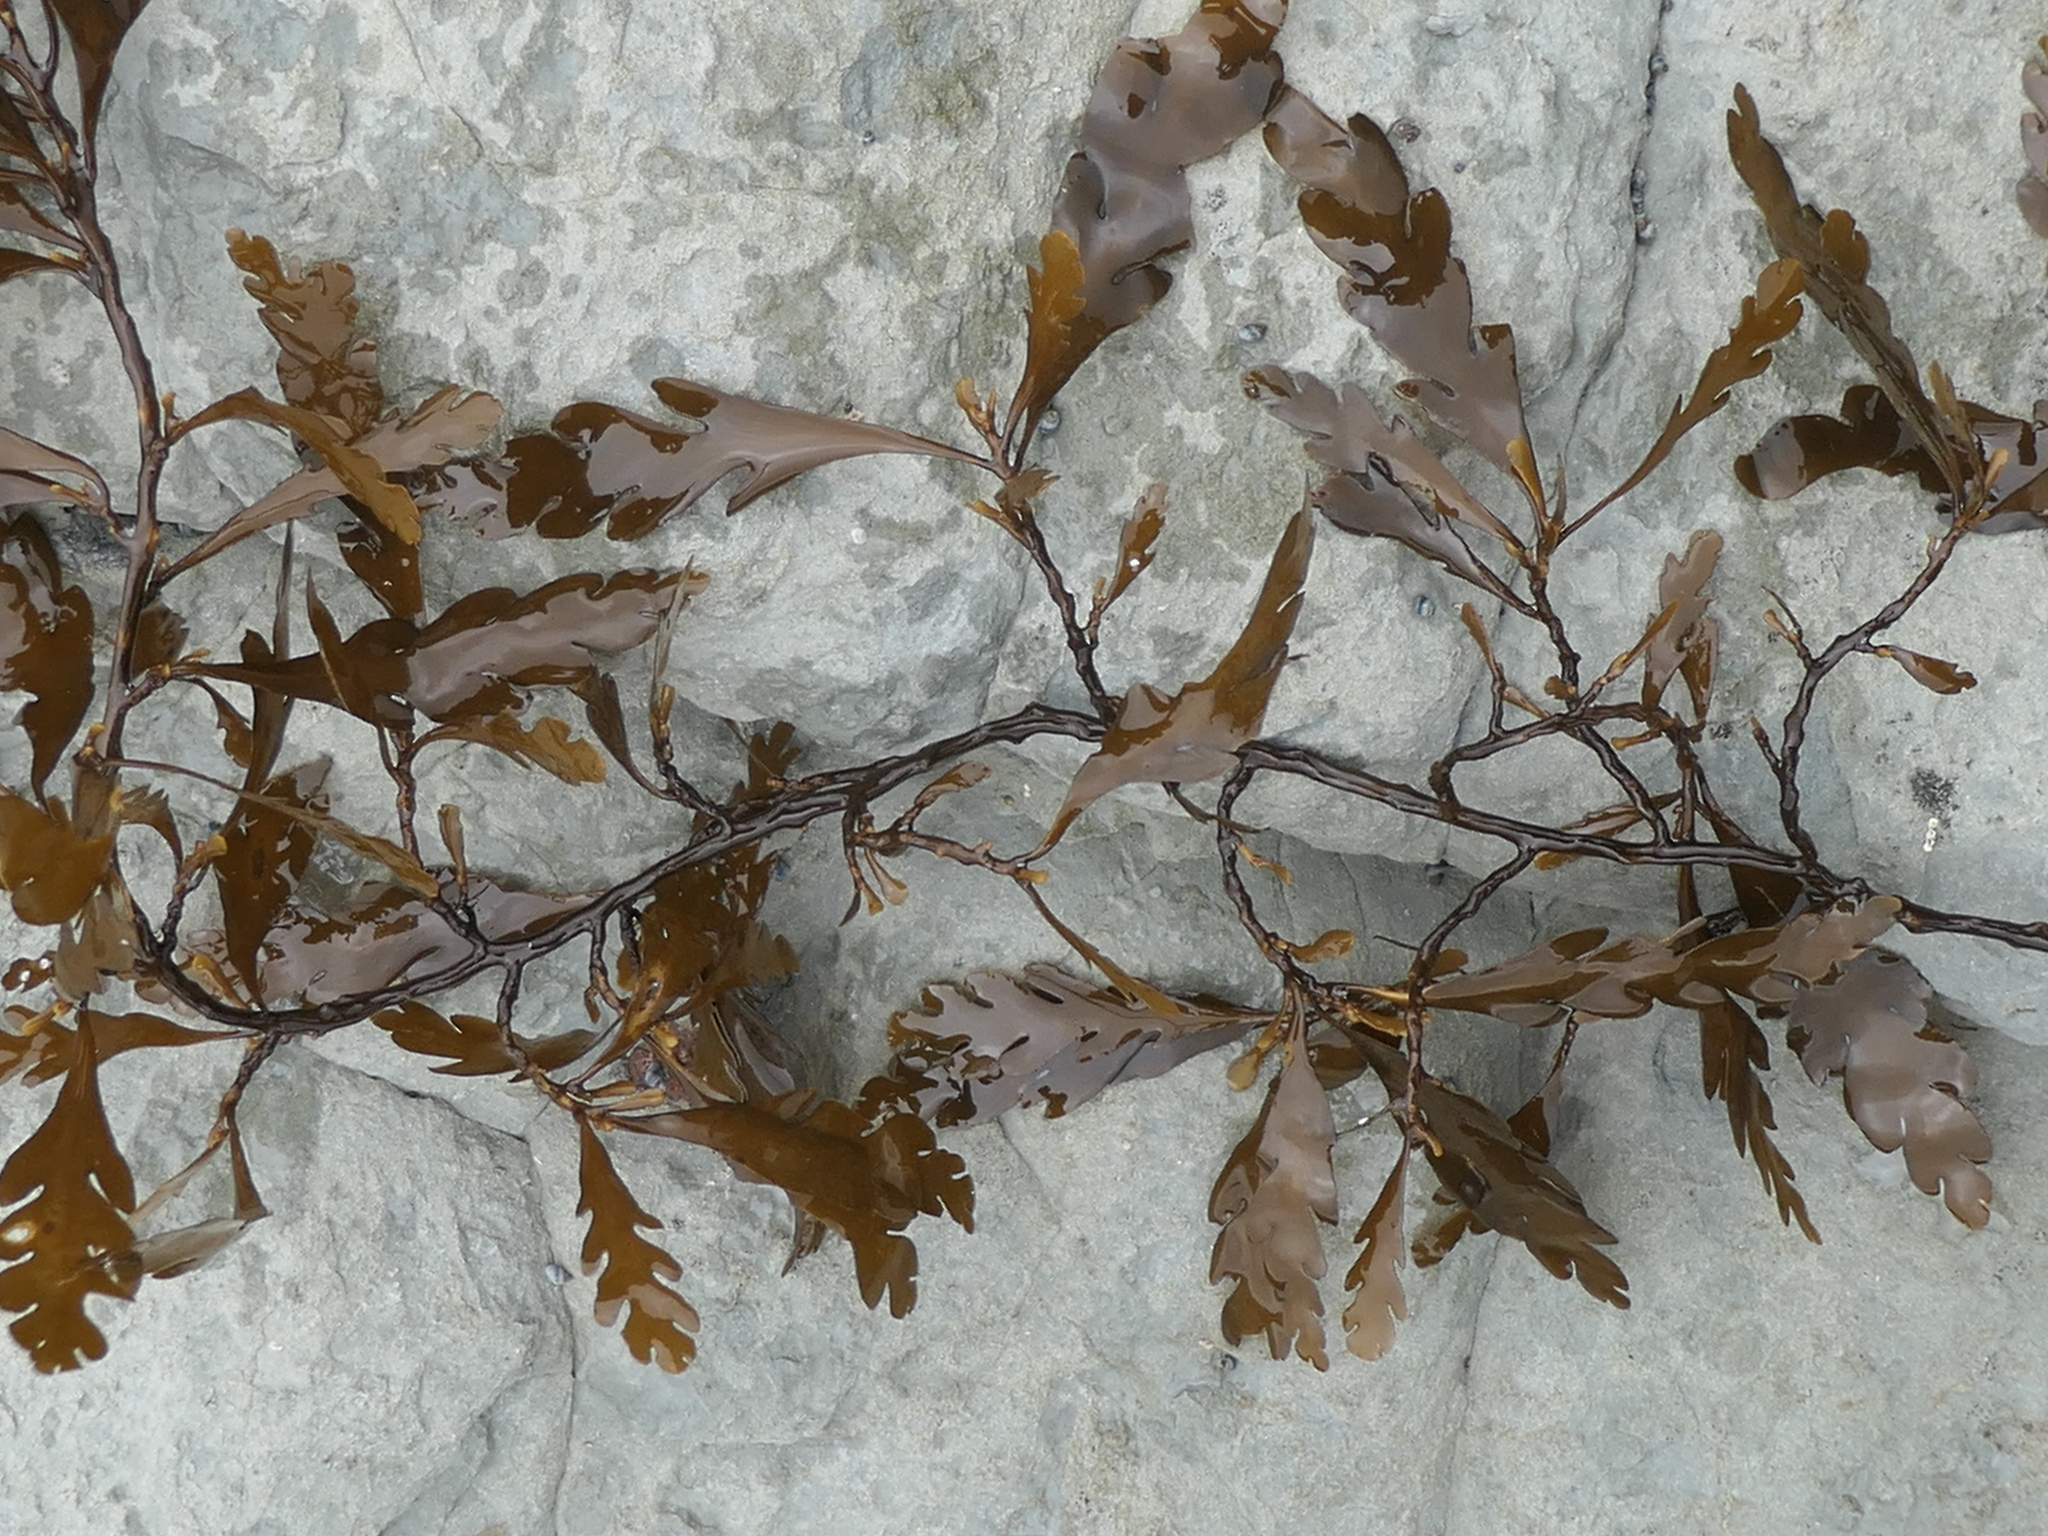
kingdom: Chromista
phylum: Ochrophyta
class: Phaeophyceae
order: Fucales
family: Sargassaceae
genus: Landsburgia
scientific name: Landsburgia quercifolia
